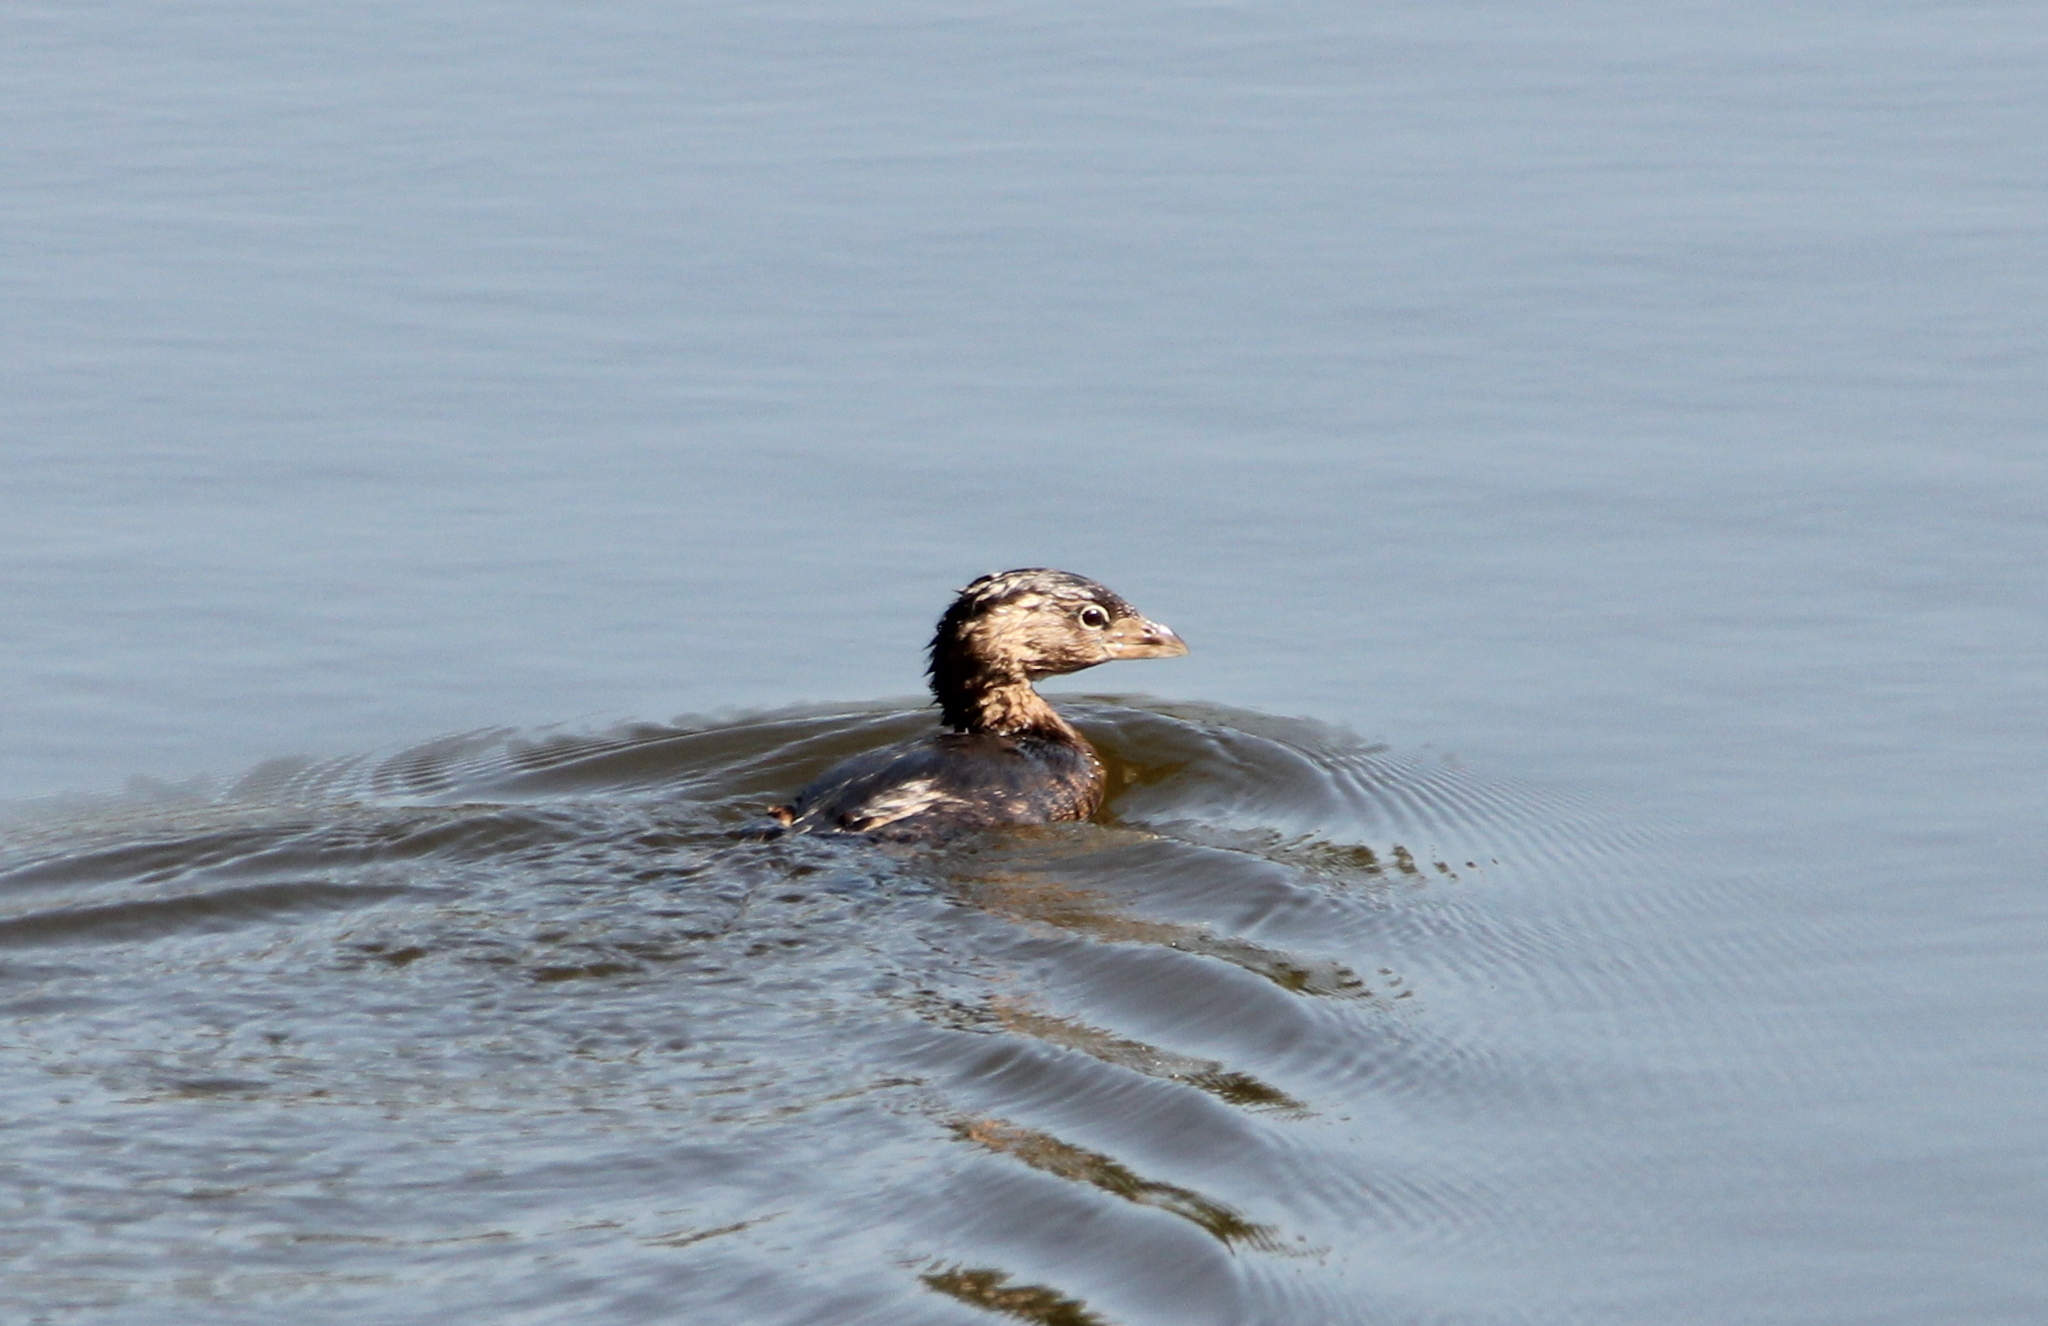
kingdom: Animalia
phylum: Chordata
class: Aves
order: Podicipediformes
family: Podicipedidae
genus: Podilymbus
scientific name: Podilymbus podiceps
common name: Pied-billed grebe
